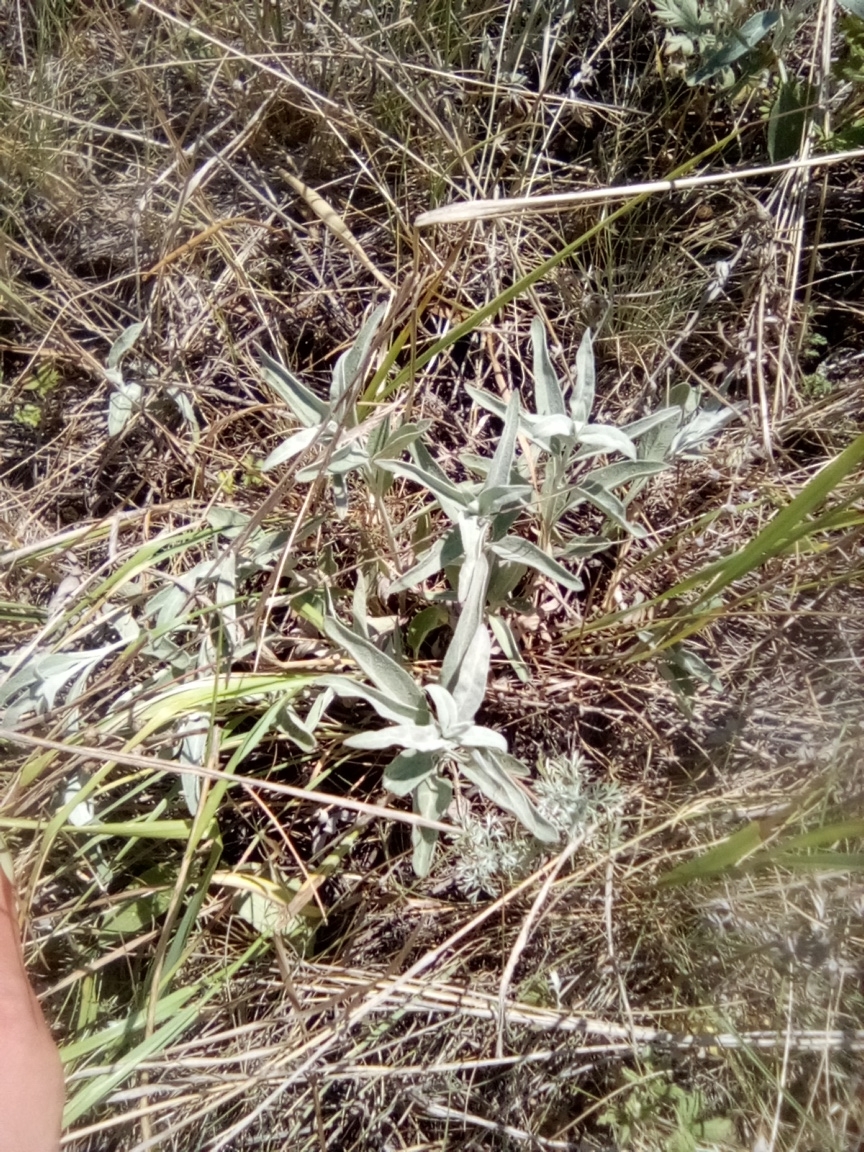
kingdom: Plantae
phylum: Tracheophyta
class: Magnoliopsida
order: Lamiales
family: Plantaginaceae
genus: Veronica
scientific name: Veronica incana
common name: Silver speedwell
